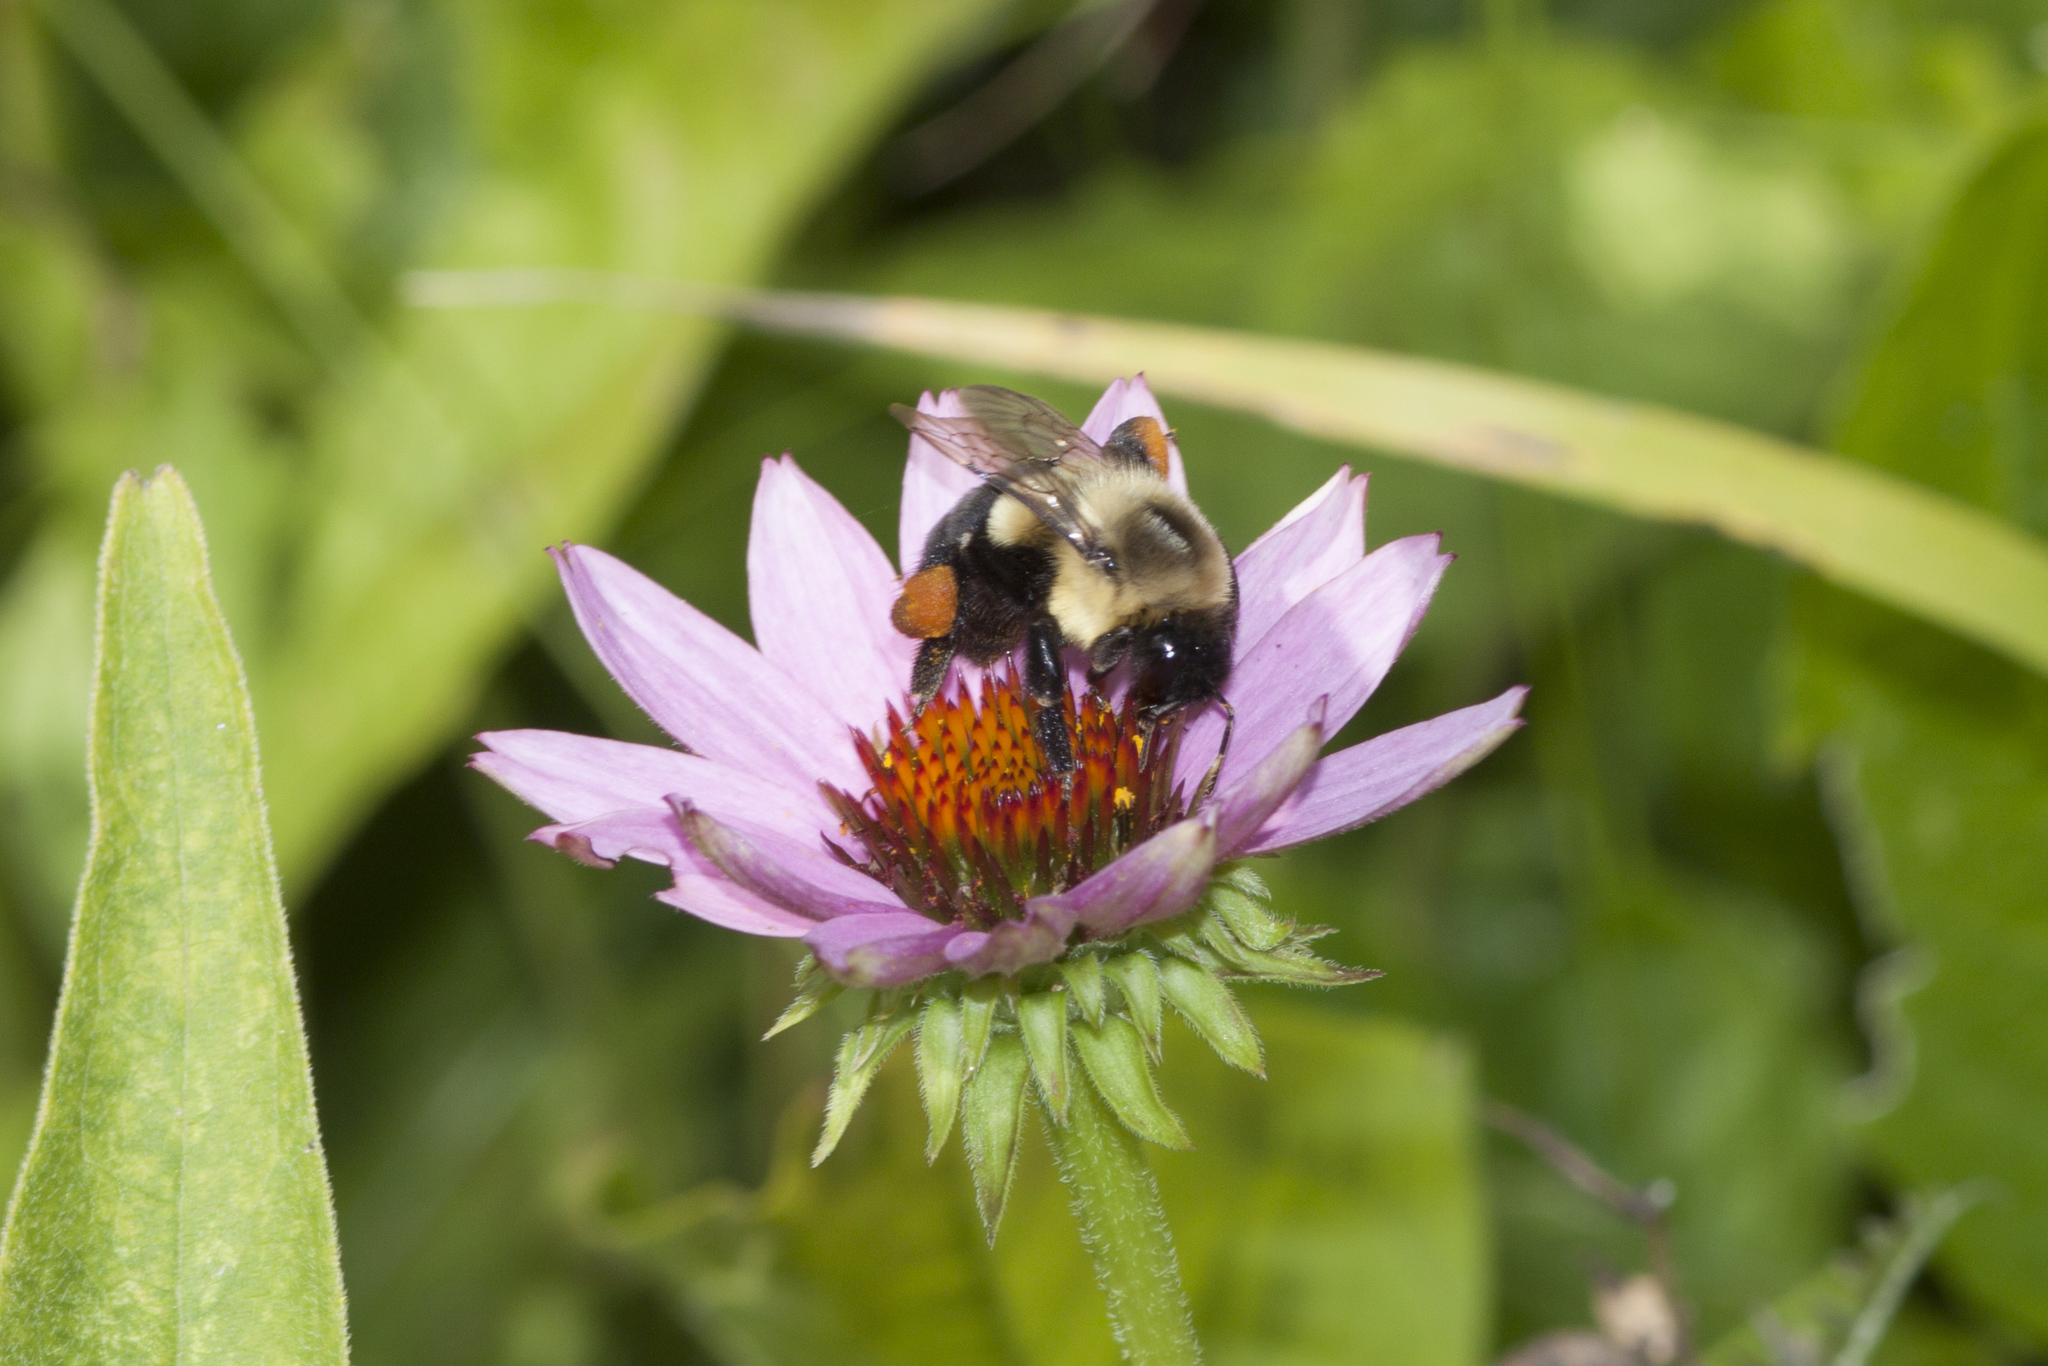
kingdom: Animalia
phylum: Arthropoda
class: Insecta
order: Hymenoptera
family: Apidae
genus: Bombus
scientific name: Bombus impatiens
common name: Common eastern bumble bee
